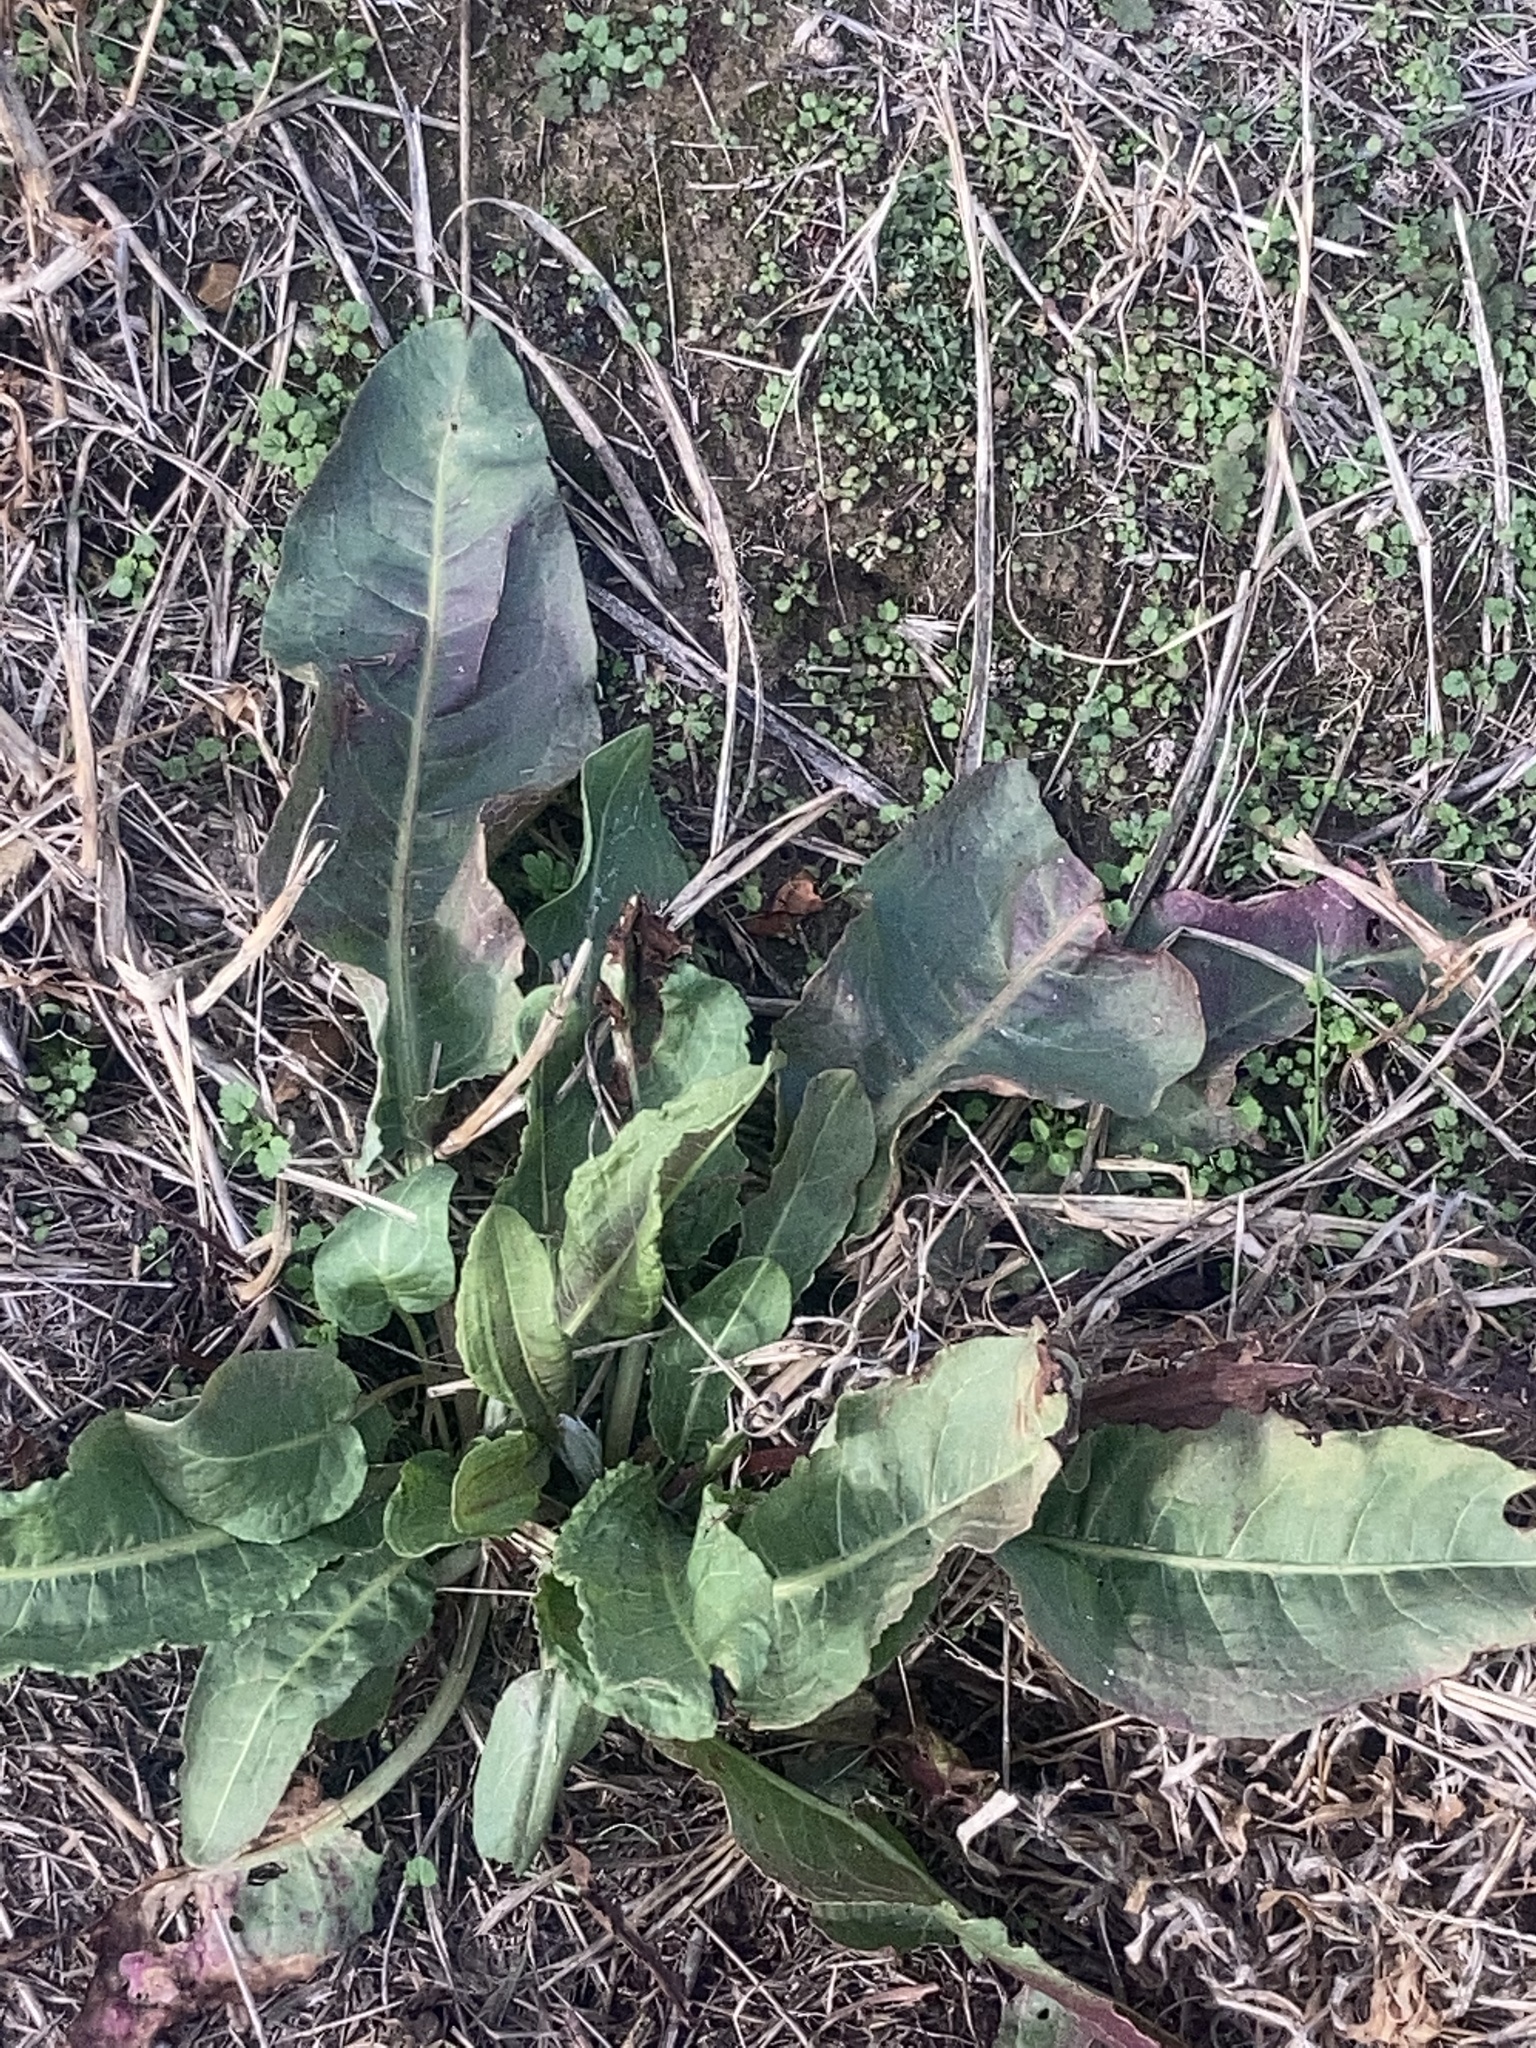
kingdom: Plantae
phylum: Tracheophyta
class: Magnoliopsida
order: Caryophyllales
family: Polygonaceae
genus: Rumex
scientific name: Rumex crispus
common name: Curled dock
